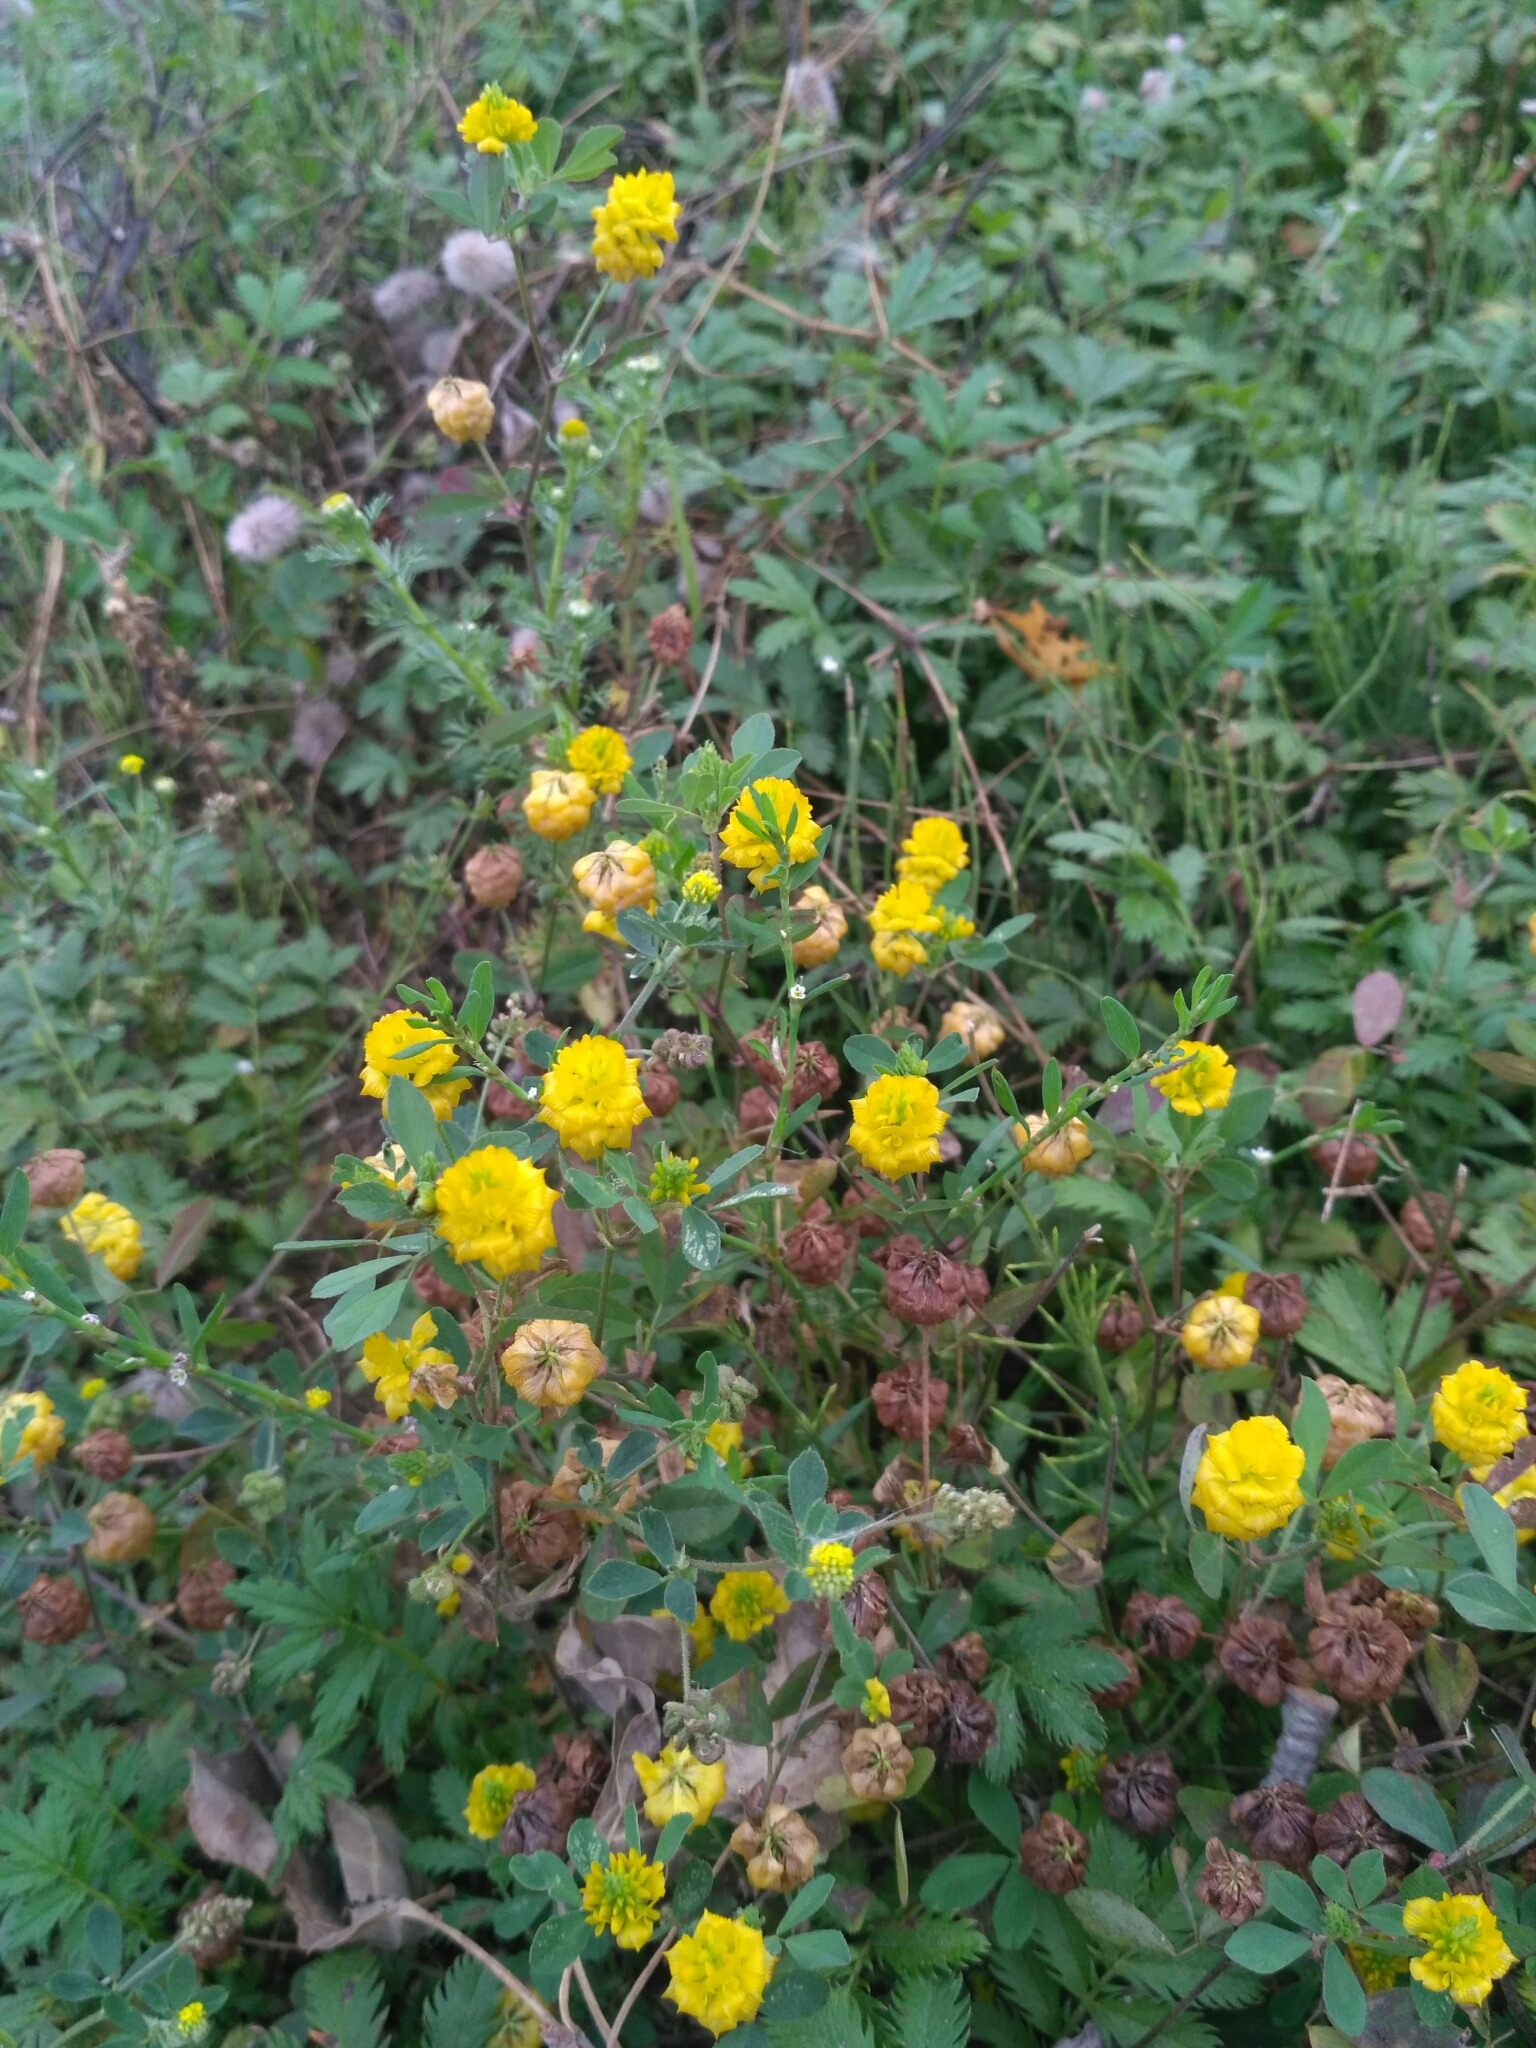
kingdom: Plantae
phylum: Tracheophyta
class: Magnoliopsida
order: Fabales
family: Fabaceae
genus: Trifolium
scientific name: Trifolium campestre
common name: Field clover
